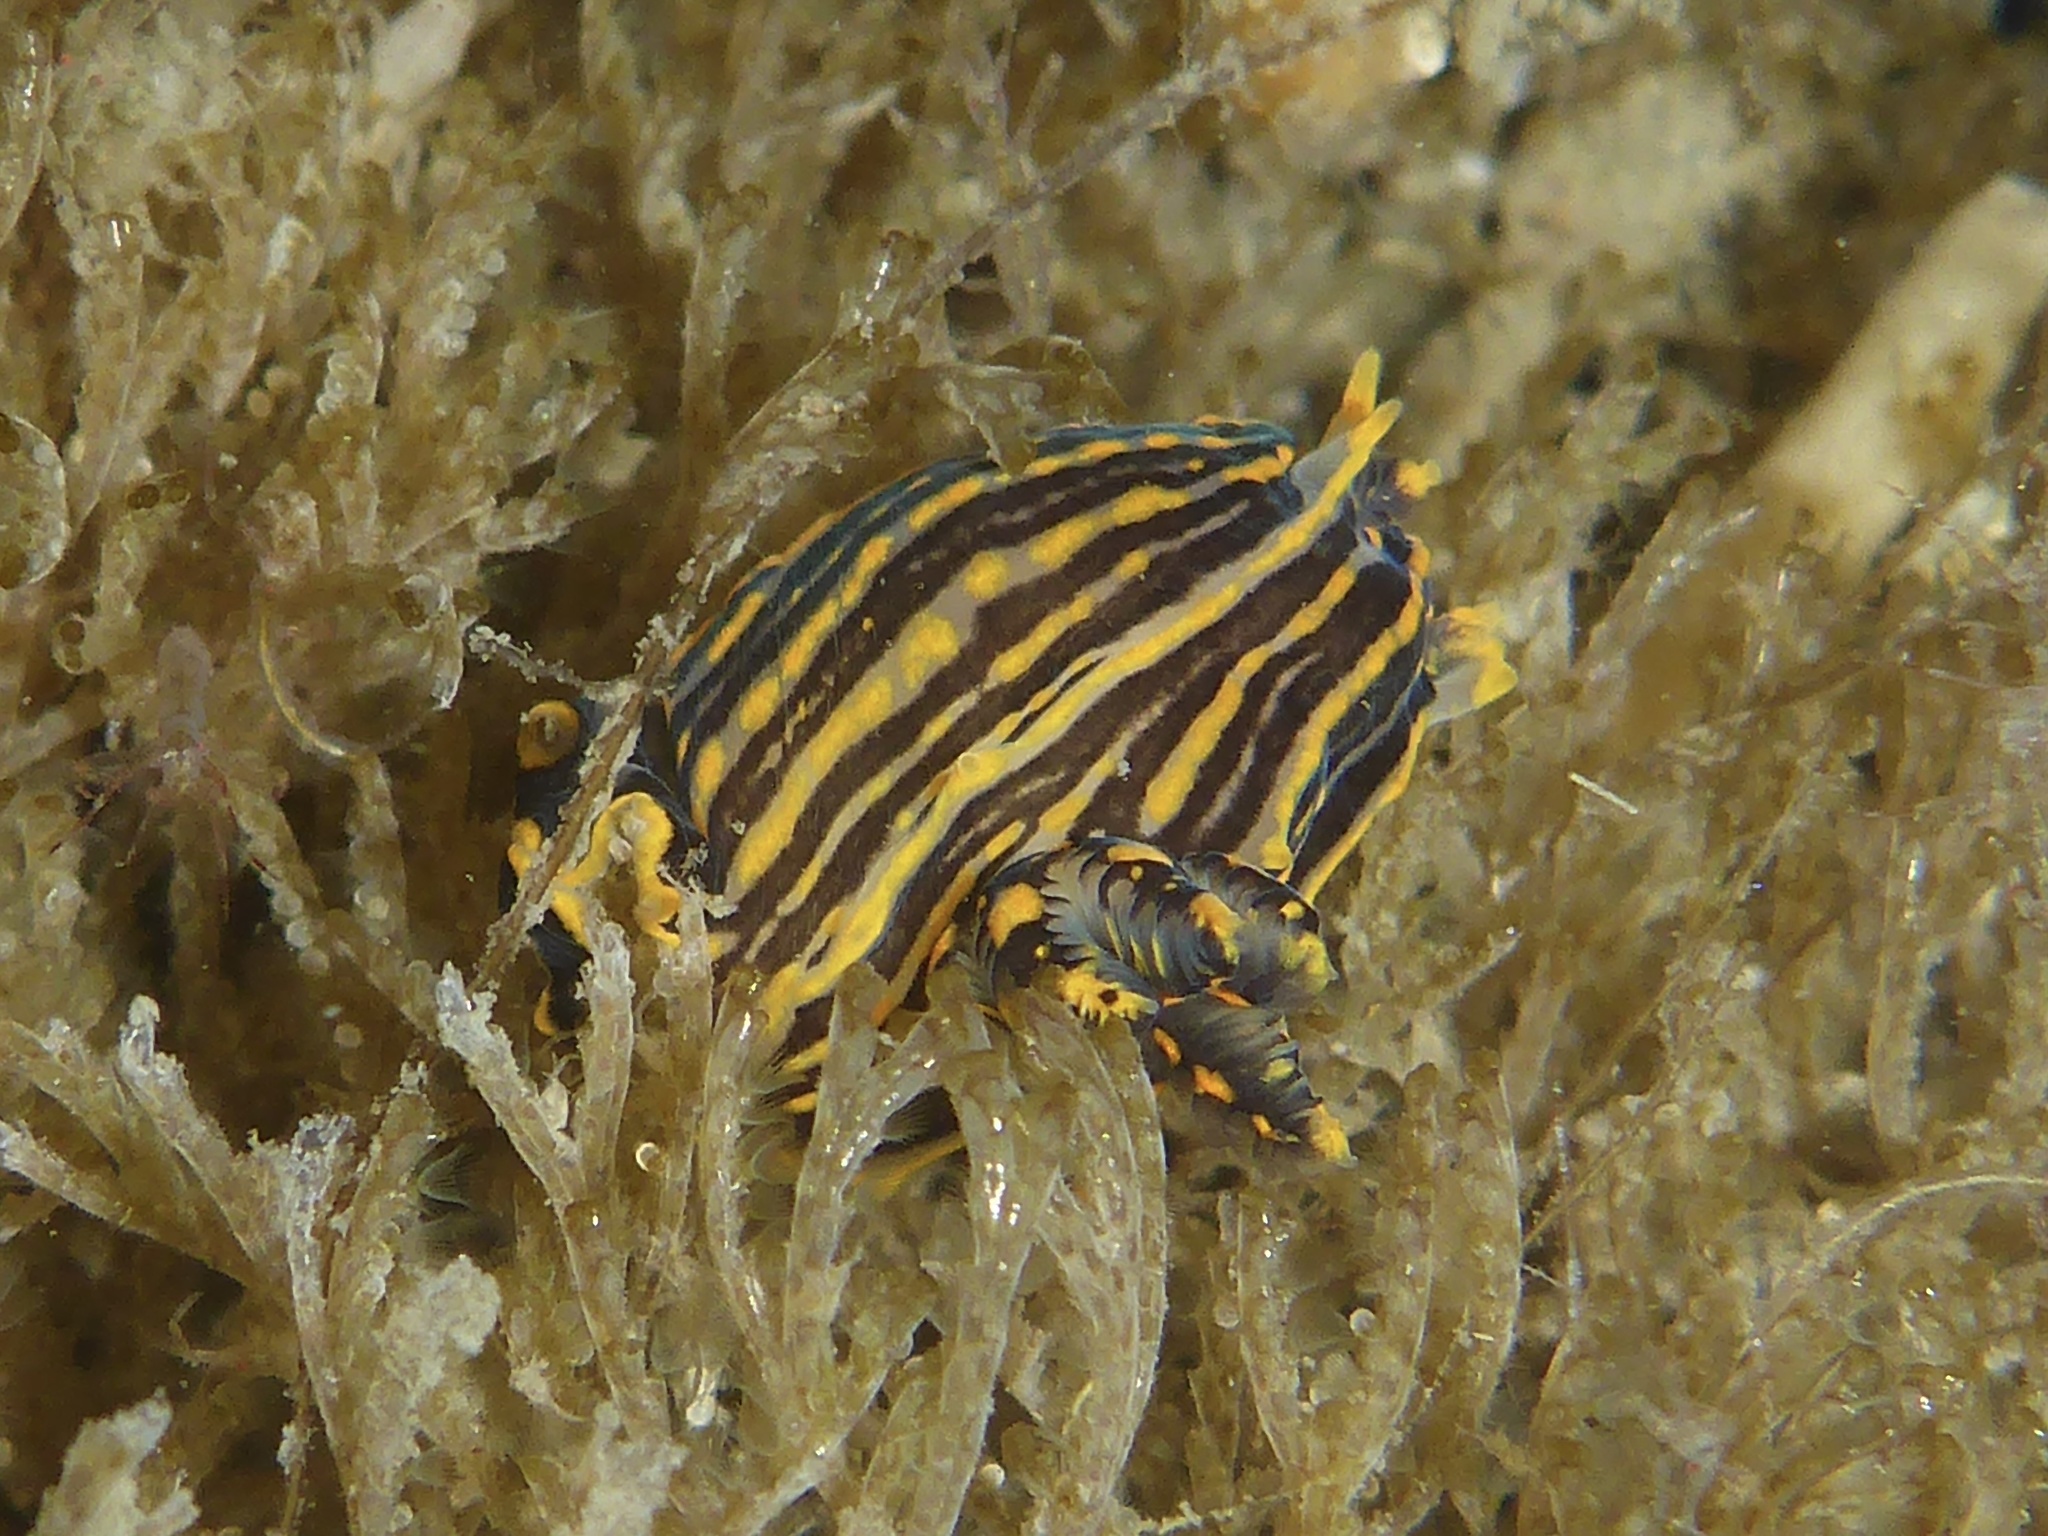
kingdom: Animalia
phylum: Mollusca
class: Gastropoda
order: Nudibranchia
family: Polyceridae
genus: Polycera
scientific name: Polycera atra
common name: Orange-spike polycera
